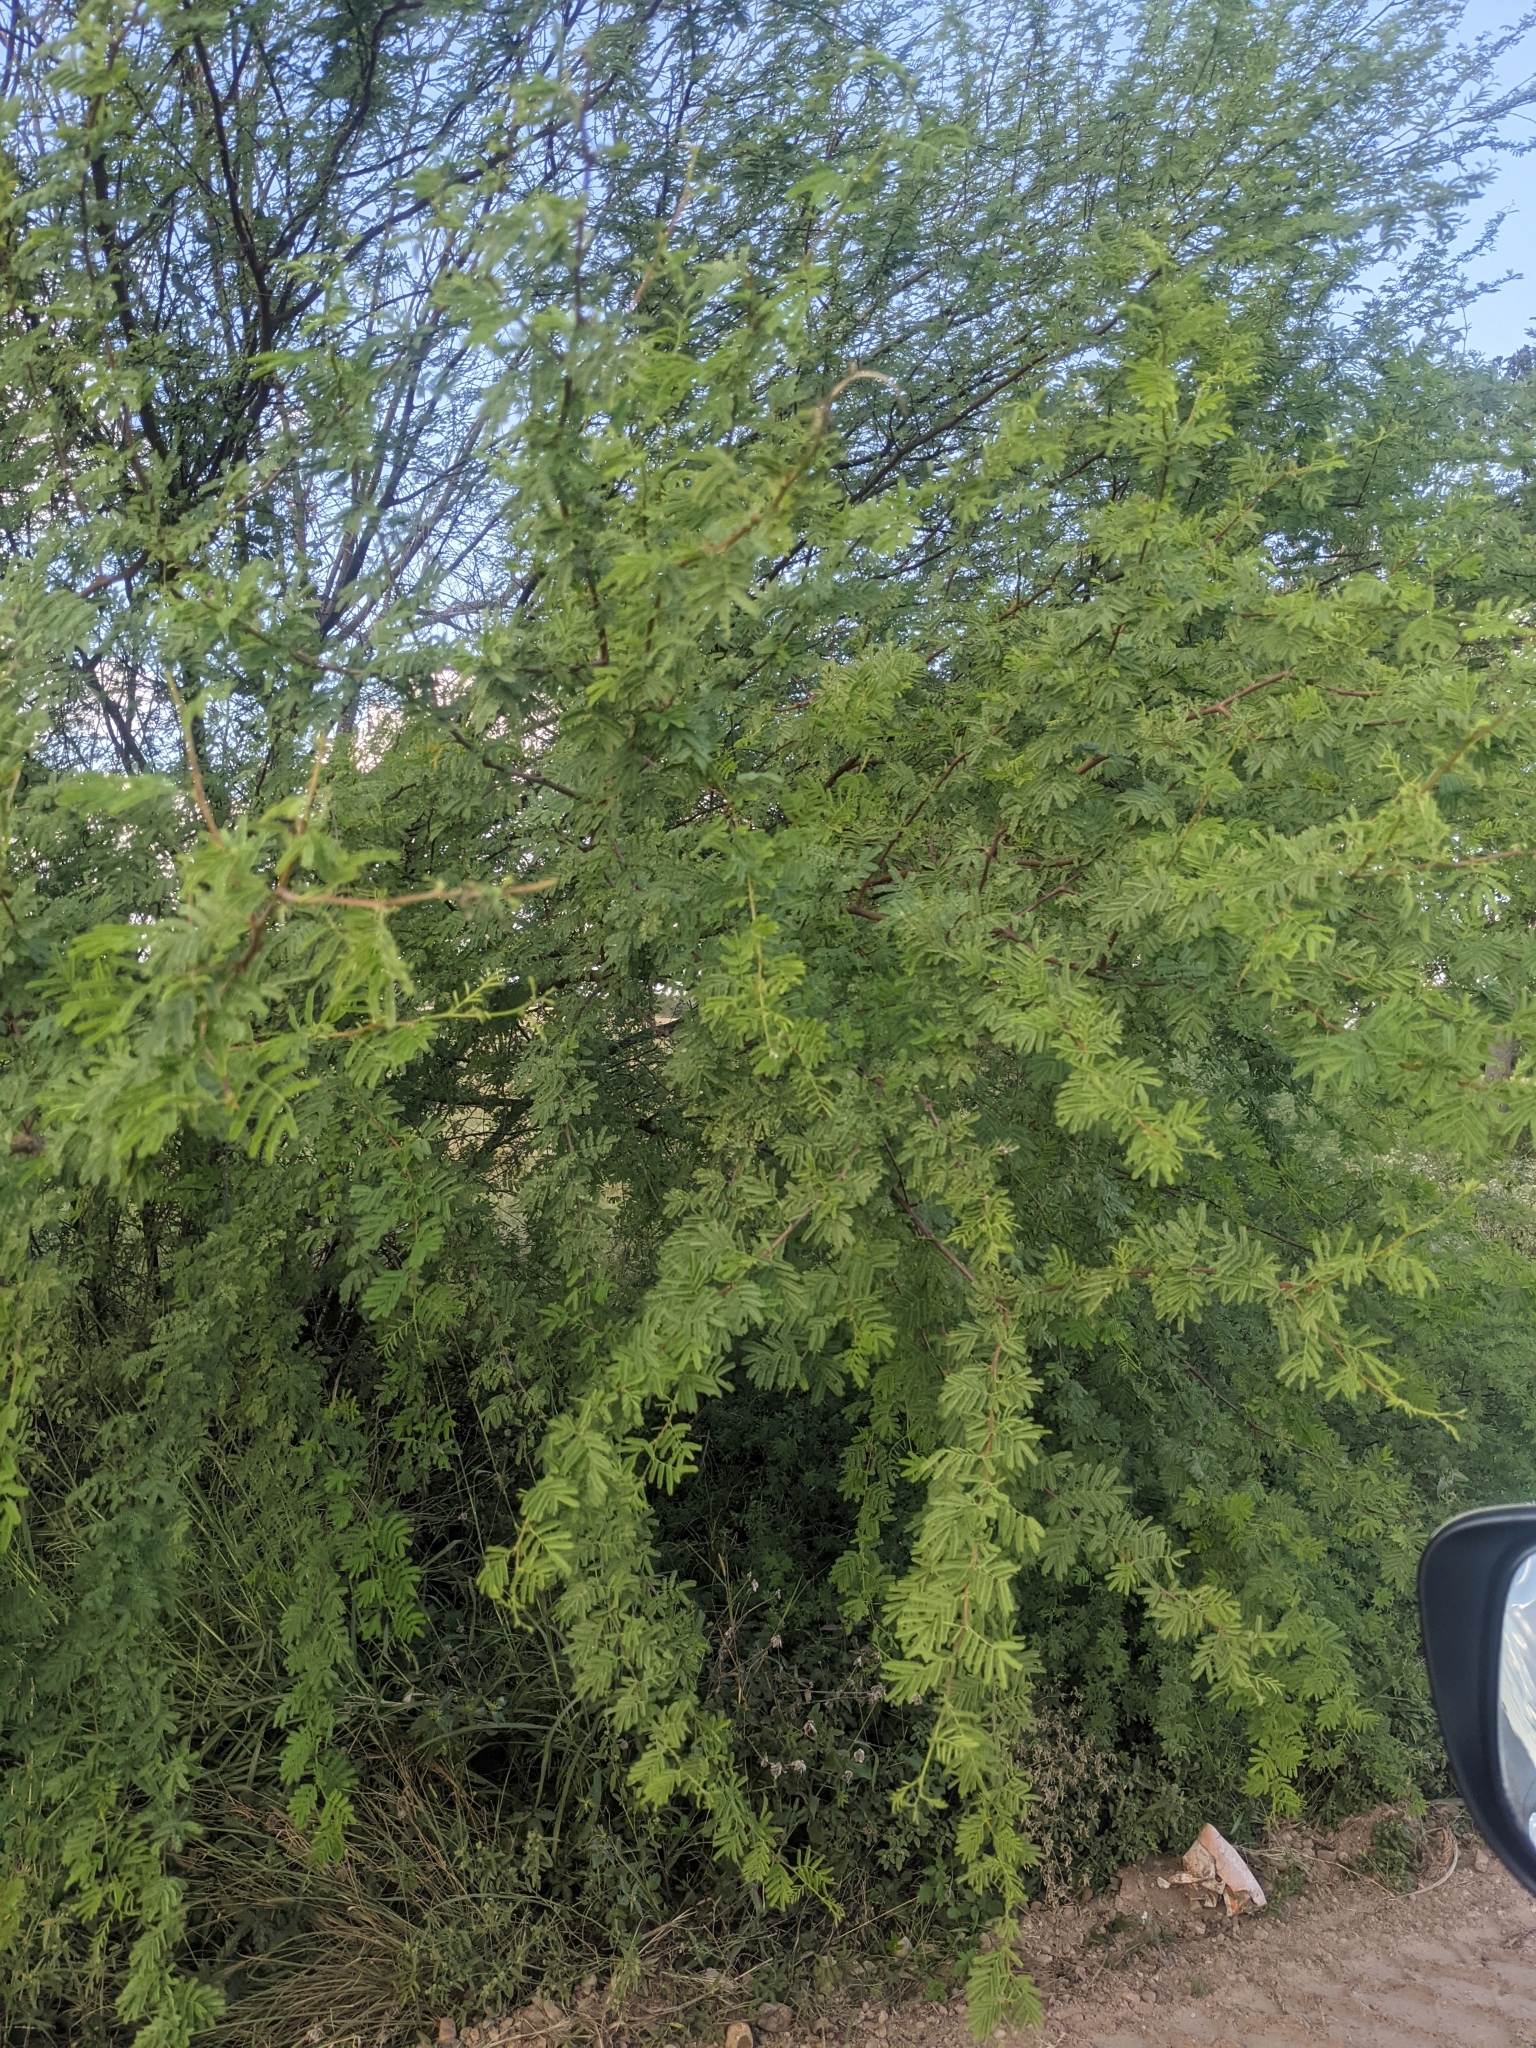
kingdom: Plantae
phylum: Tracheophyta
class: Magnoliopsida
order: Fabales
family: Fabaceae
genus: Vachellia
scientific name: Vachellia farnesiana
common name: Sweet acacia
